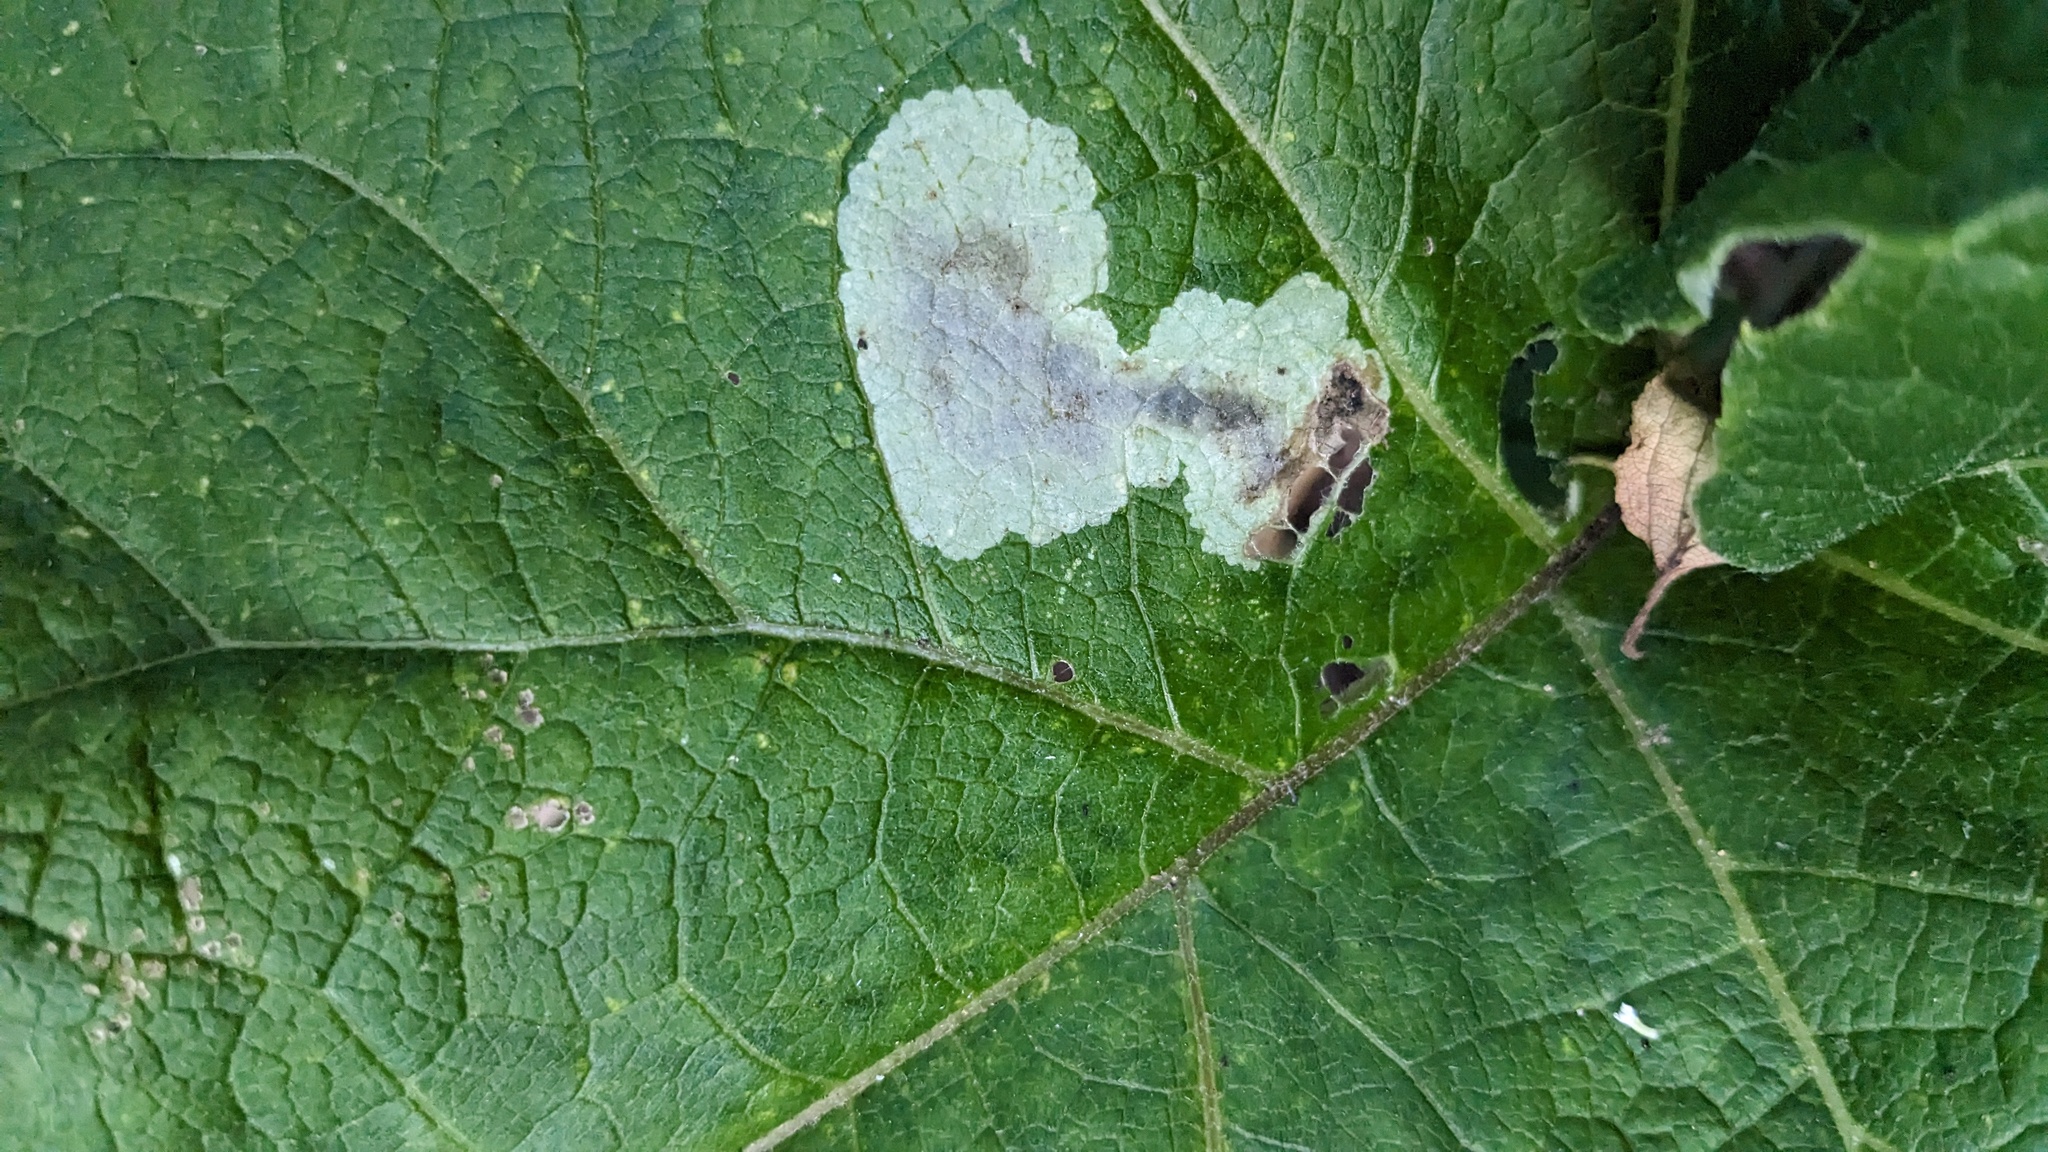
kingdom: Animalia
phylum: Arthropoda
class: Insecta
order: Diptera
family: Agromyzidae
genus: Calycomyza
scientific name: Calycomyza flavinotum
